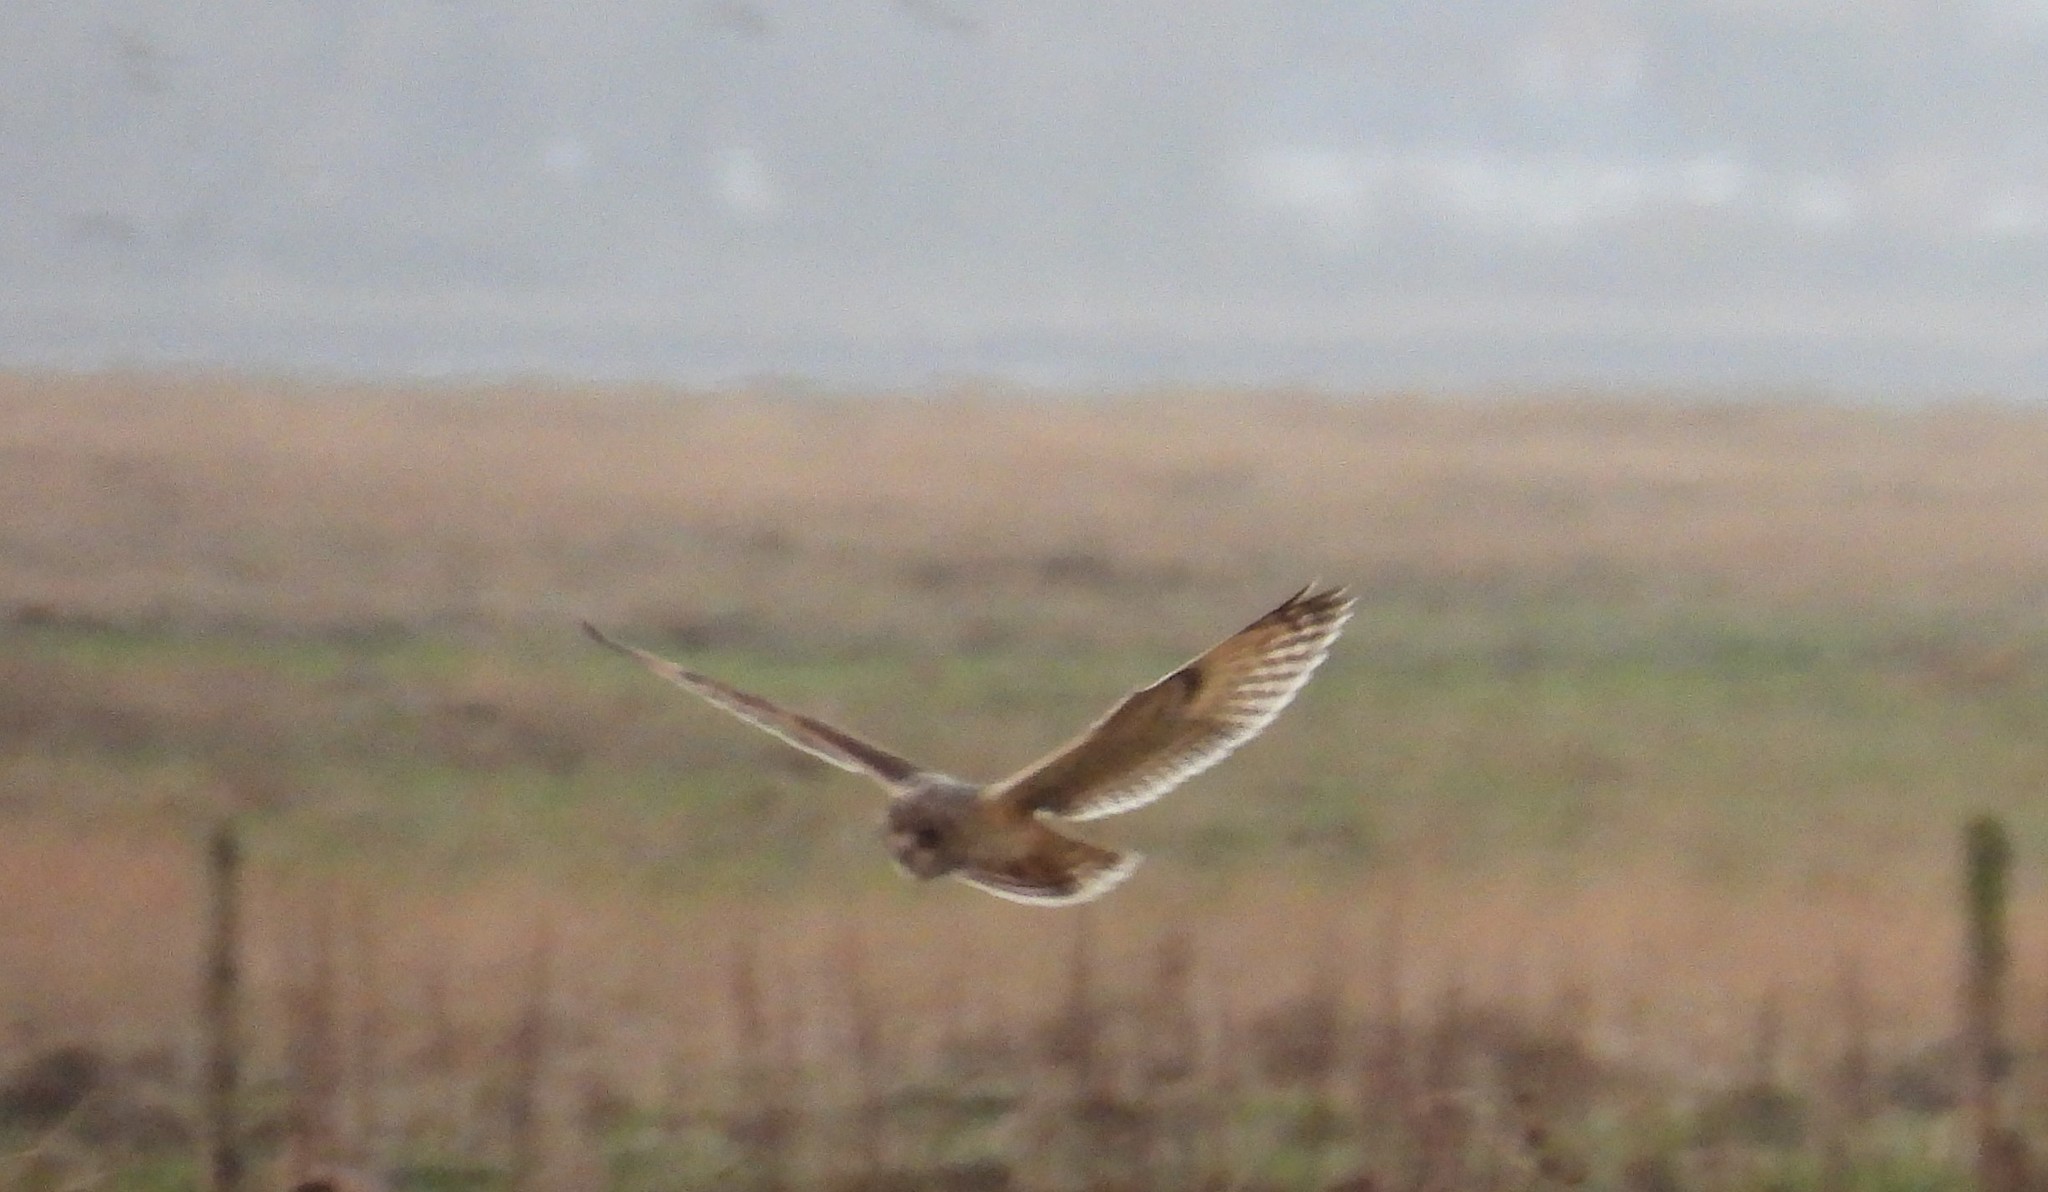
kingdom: Animalia
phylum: Chordata
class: Aves
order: Strigiformes
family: Strigidae
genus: Asio
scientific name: Asio flammeus
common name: Short-eared owl
